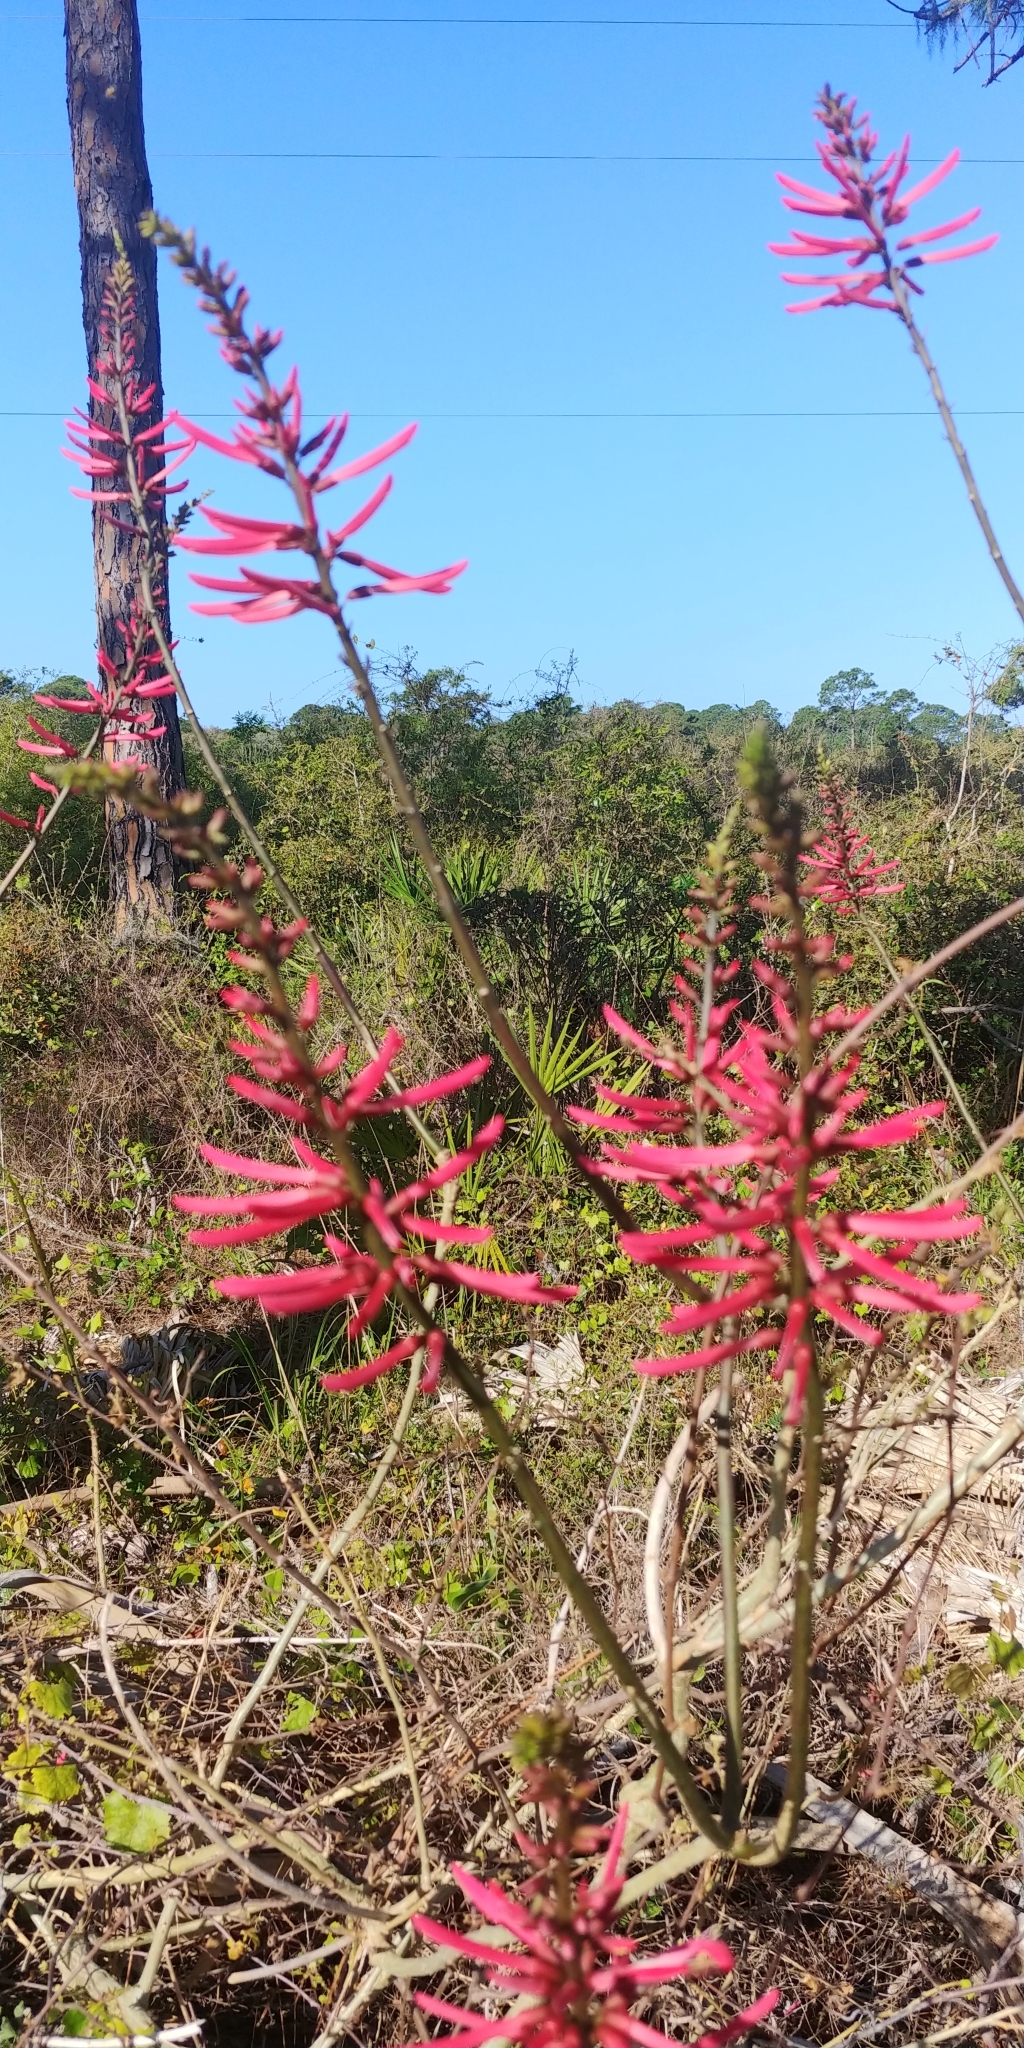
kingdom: Plantae
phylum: Tracheophyta
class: Magnoliopsida
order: Fabales
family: Fabaceae
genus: Erythrina
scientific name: Erythrina herbacea
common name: Coral-bean
